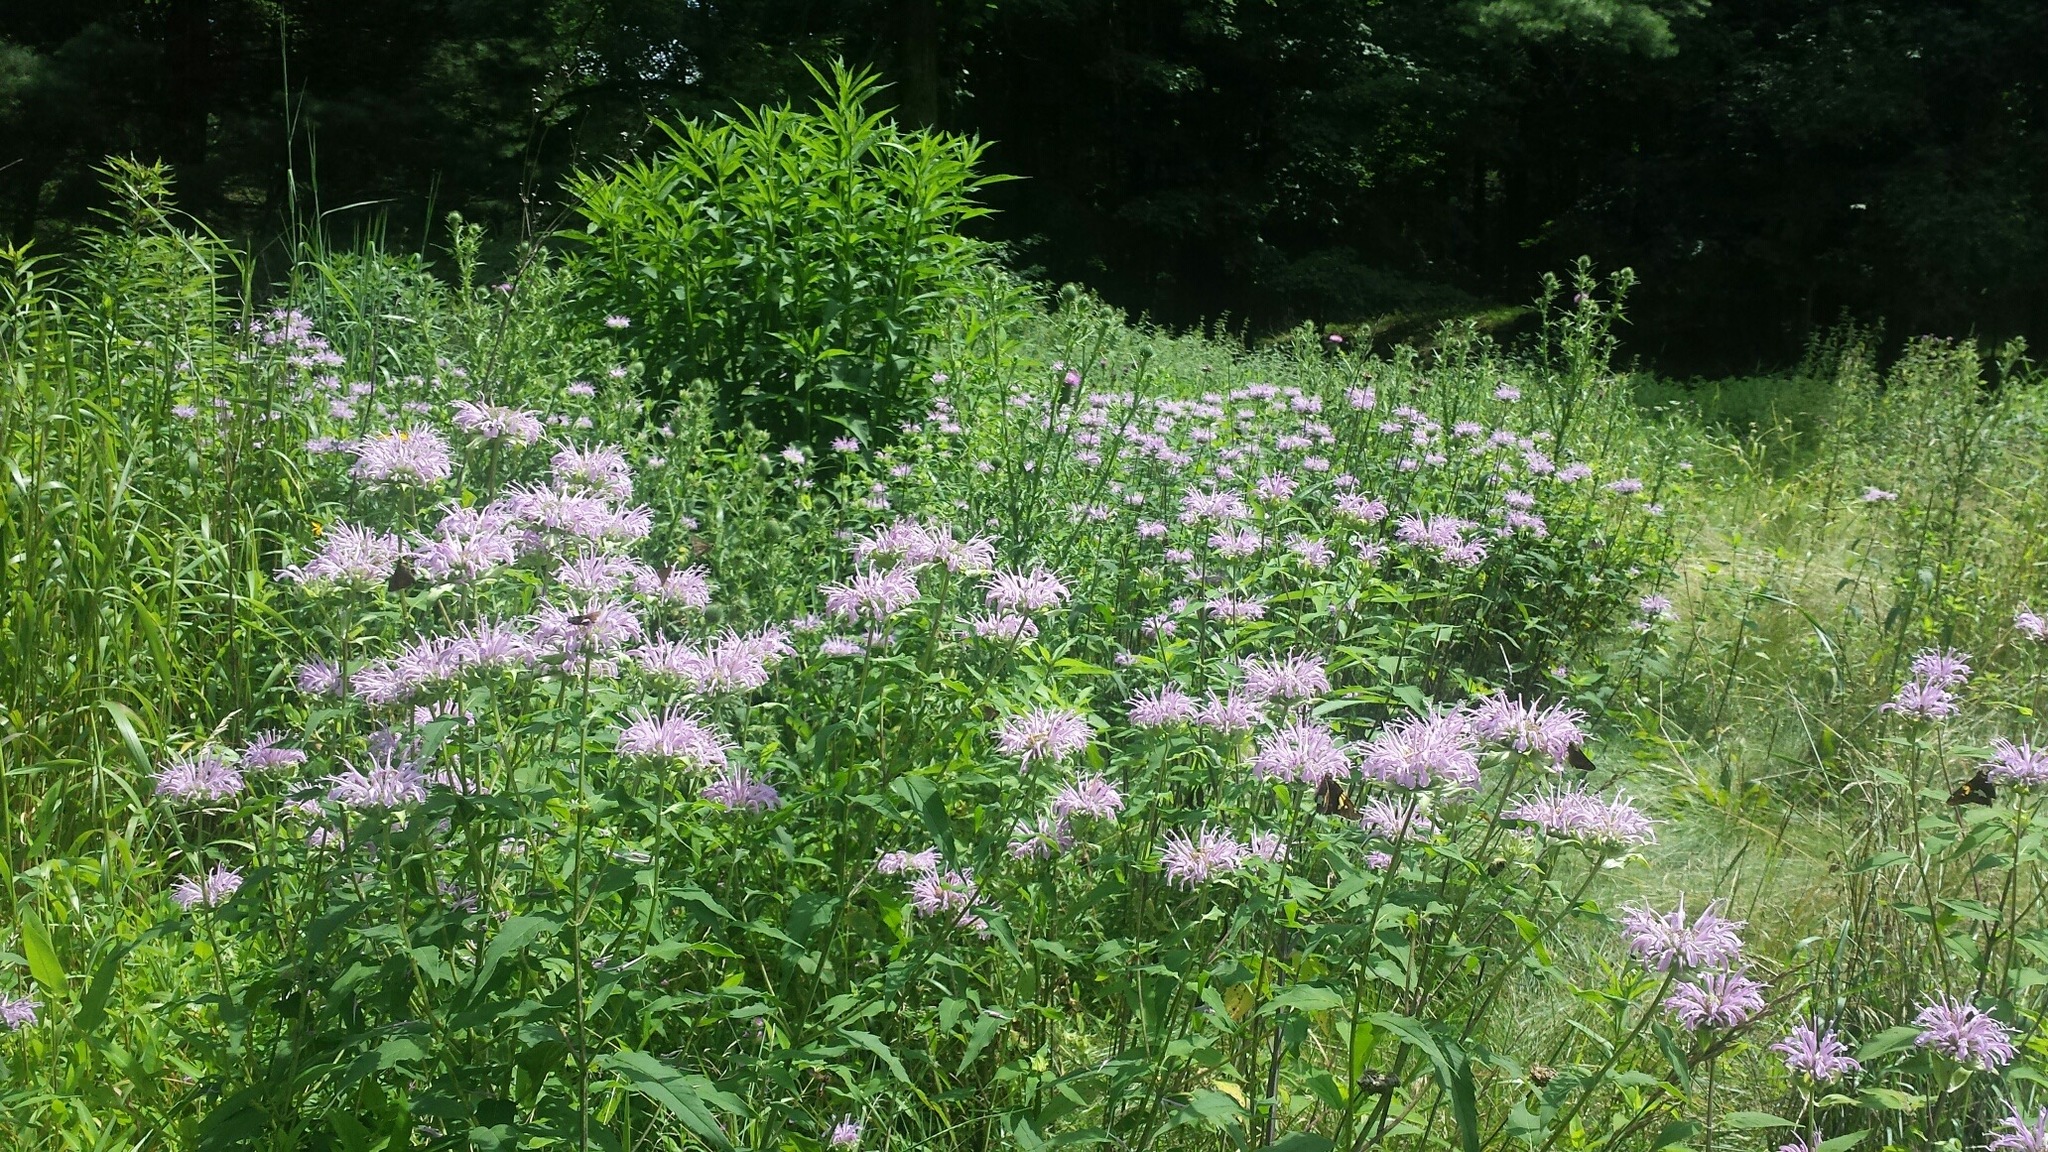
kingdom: Plantae
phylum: Tracheophyta
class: Magnoliopsida
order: Lamiales
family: Lamiaceae
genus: Monarda
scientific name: Monarda fistulosa
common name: Purple beebalm
